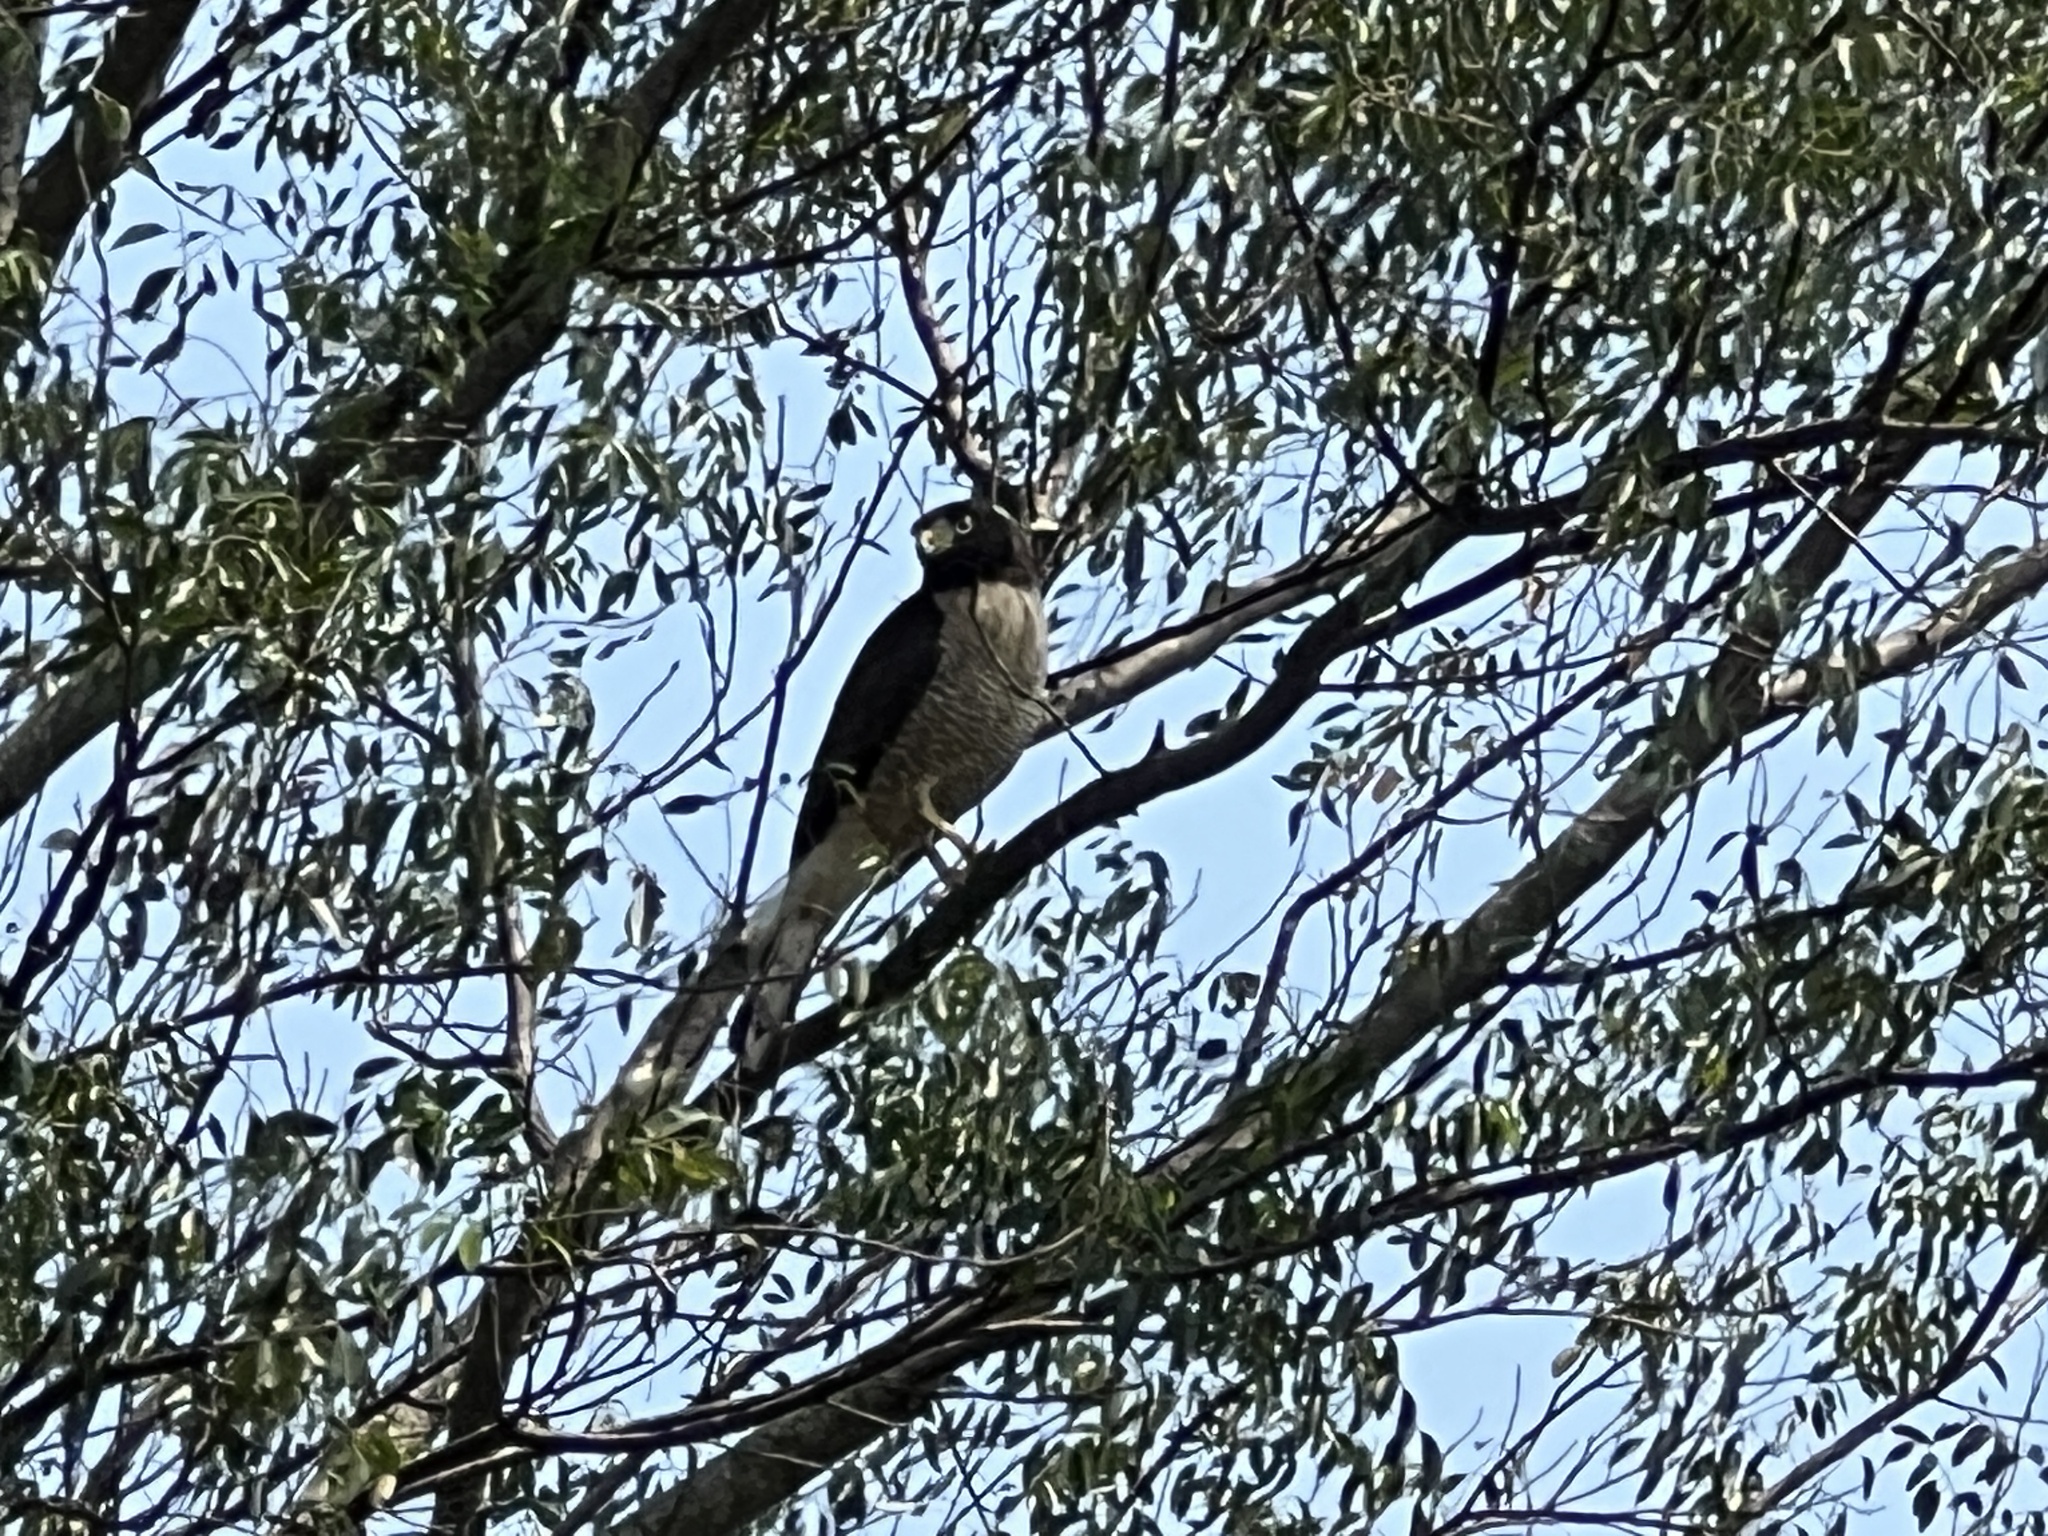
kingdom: Animalia
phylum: Chordata
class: Aves
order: Accipitriformes
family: Accipitridae
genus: Rupornis
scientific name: Rupornis magnirostris
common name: Roadside hawk
